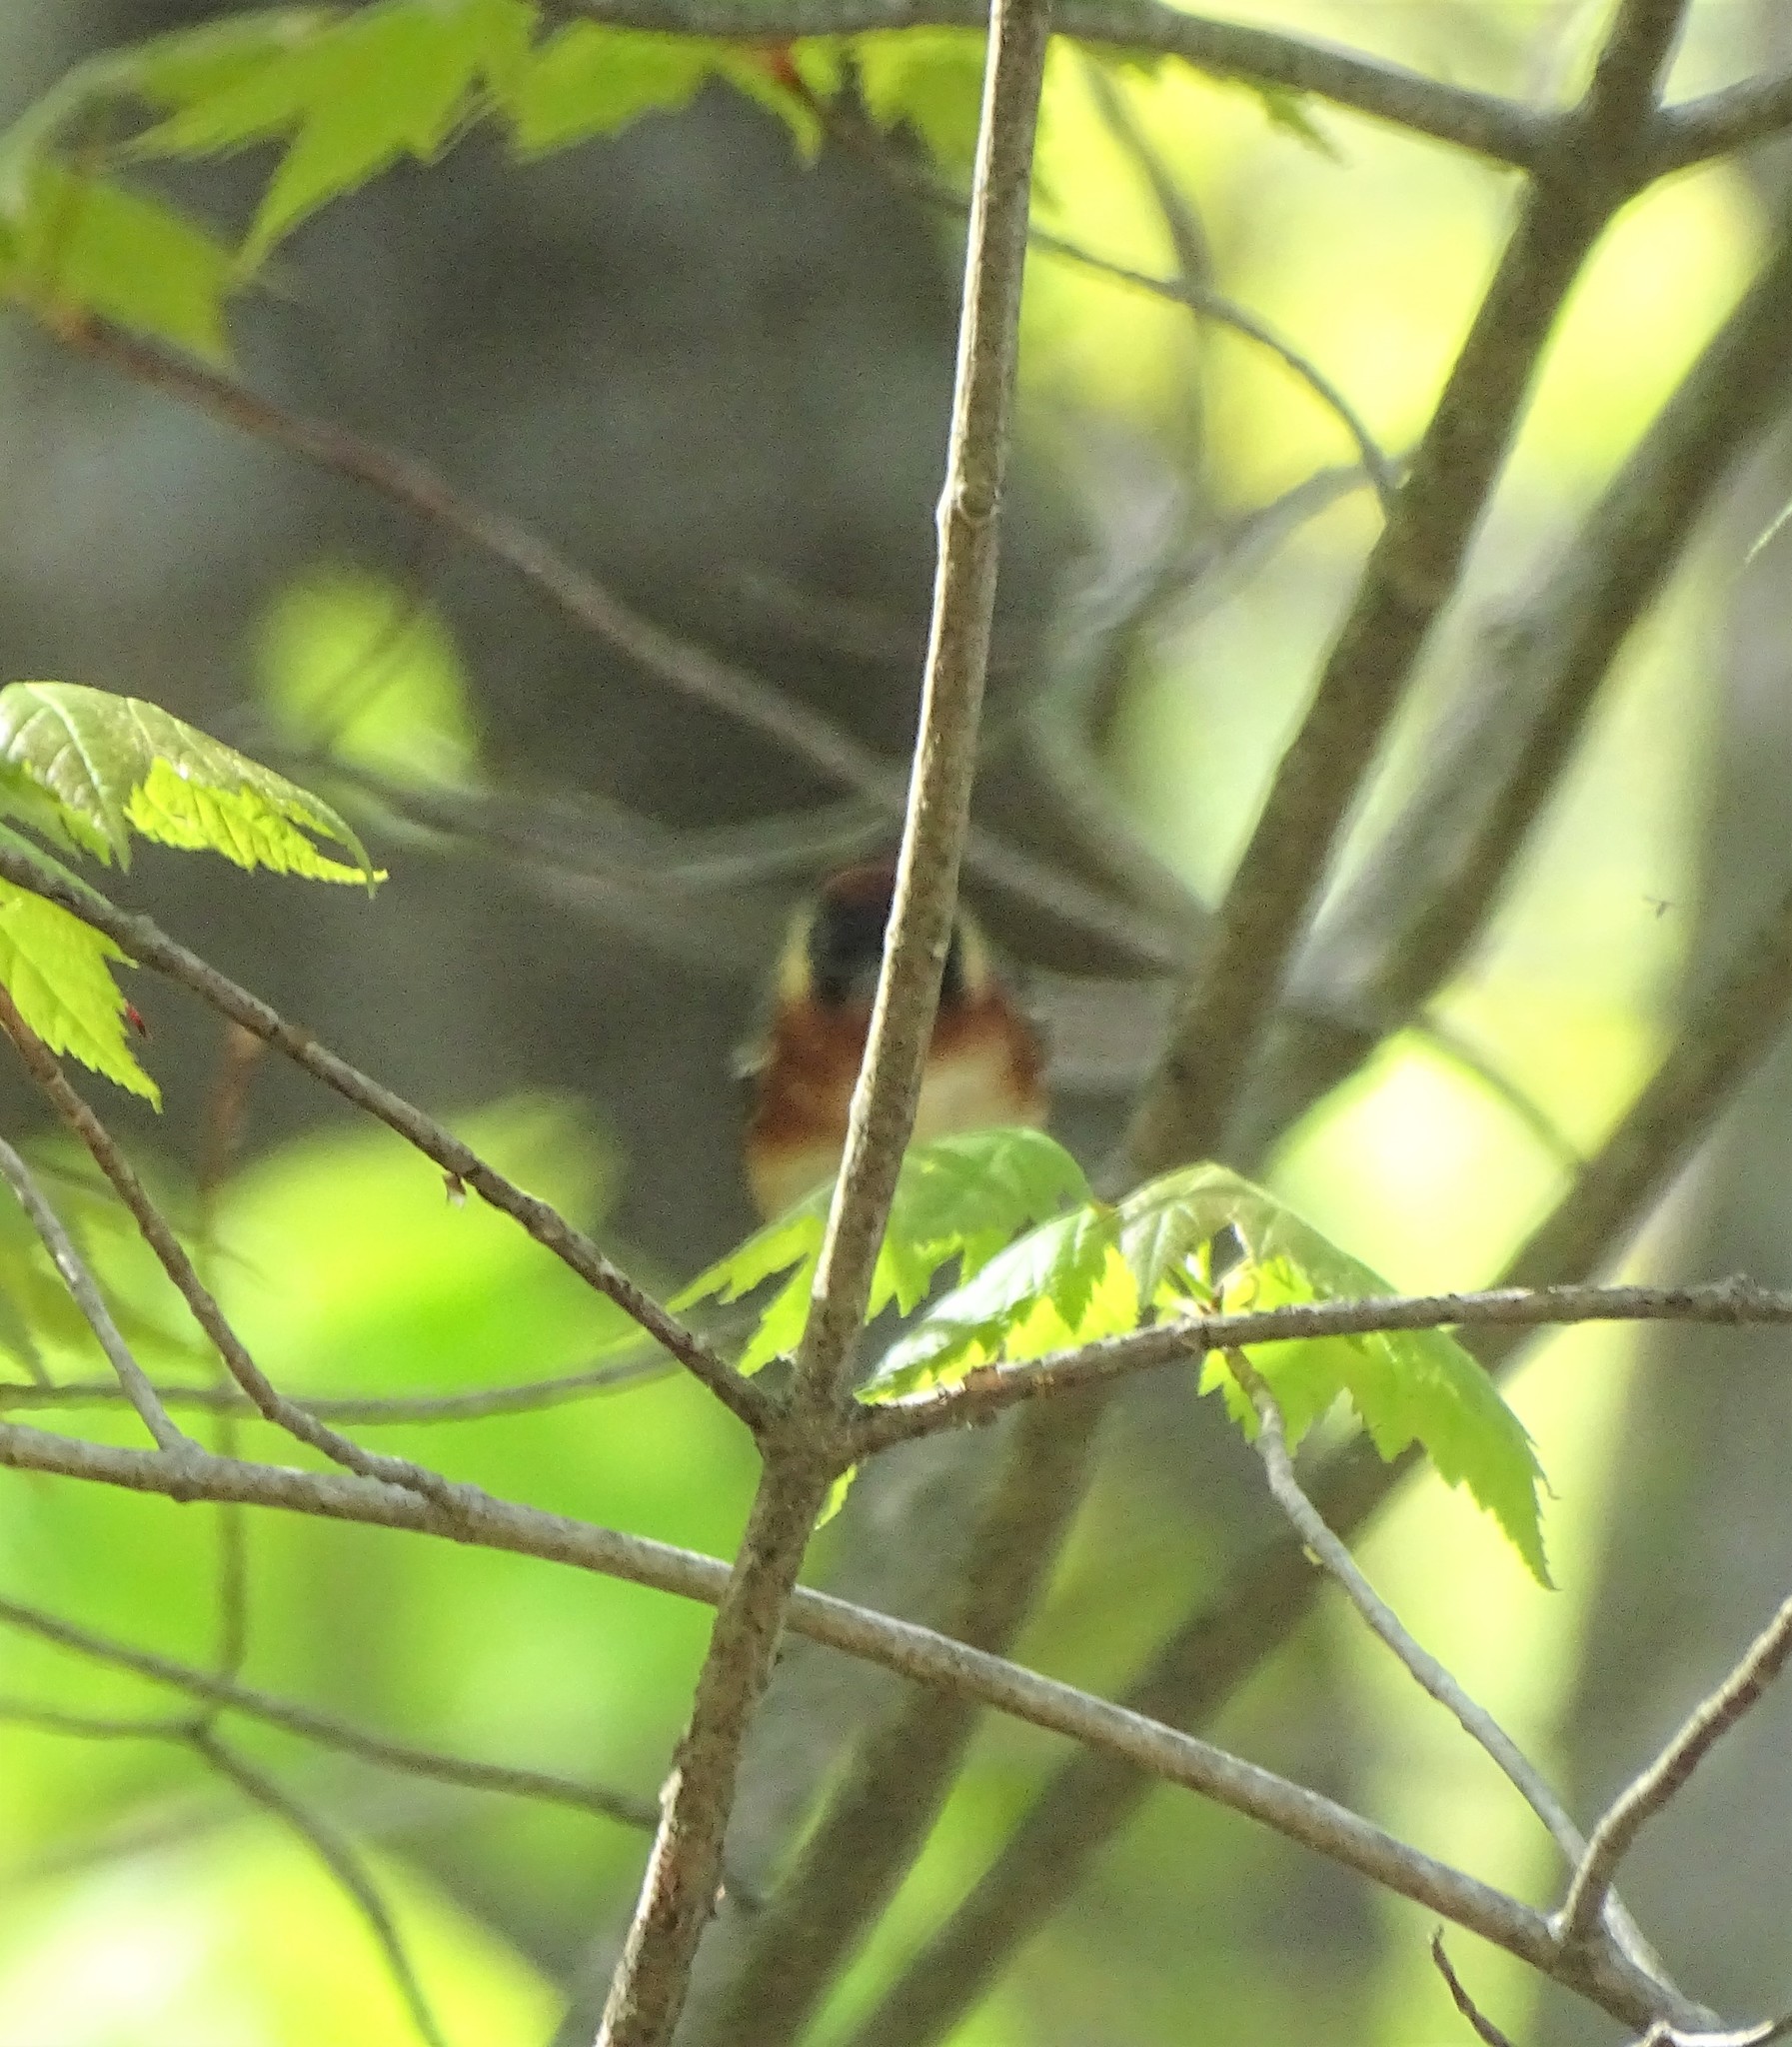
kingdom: Animalia
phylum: Chordata
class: Aves
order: Passeriformes
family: Parulidae
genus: Setophaga
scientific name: Setophaga castanea
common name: Bay-breasted warbler
